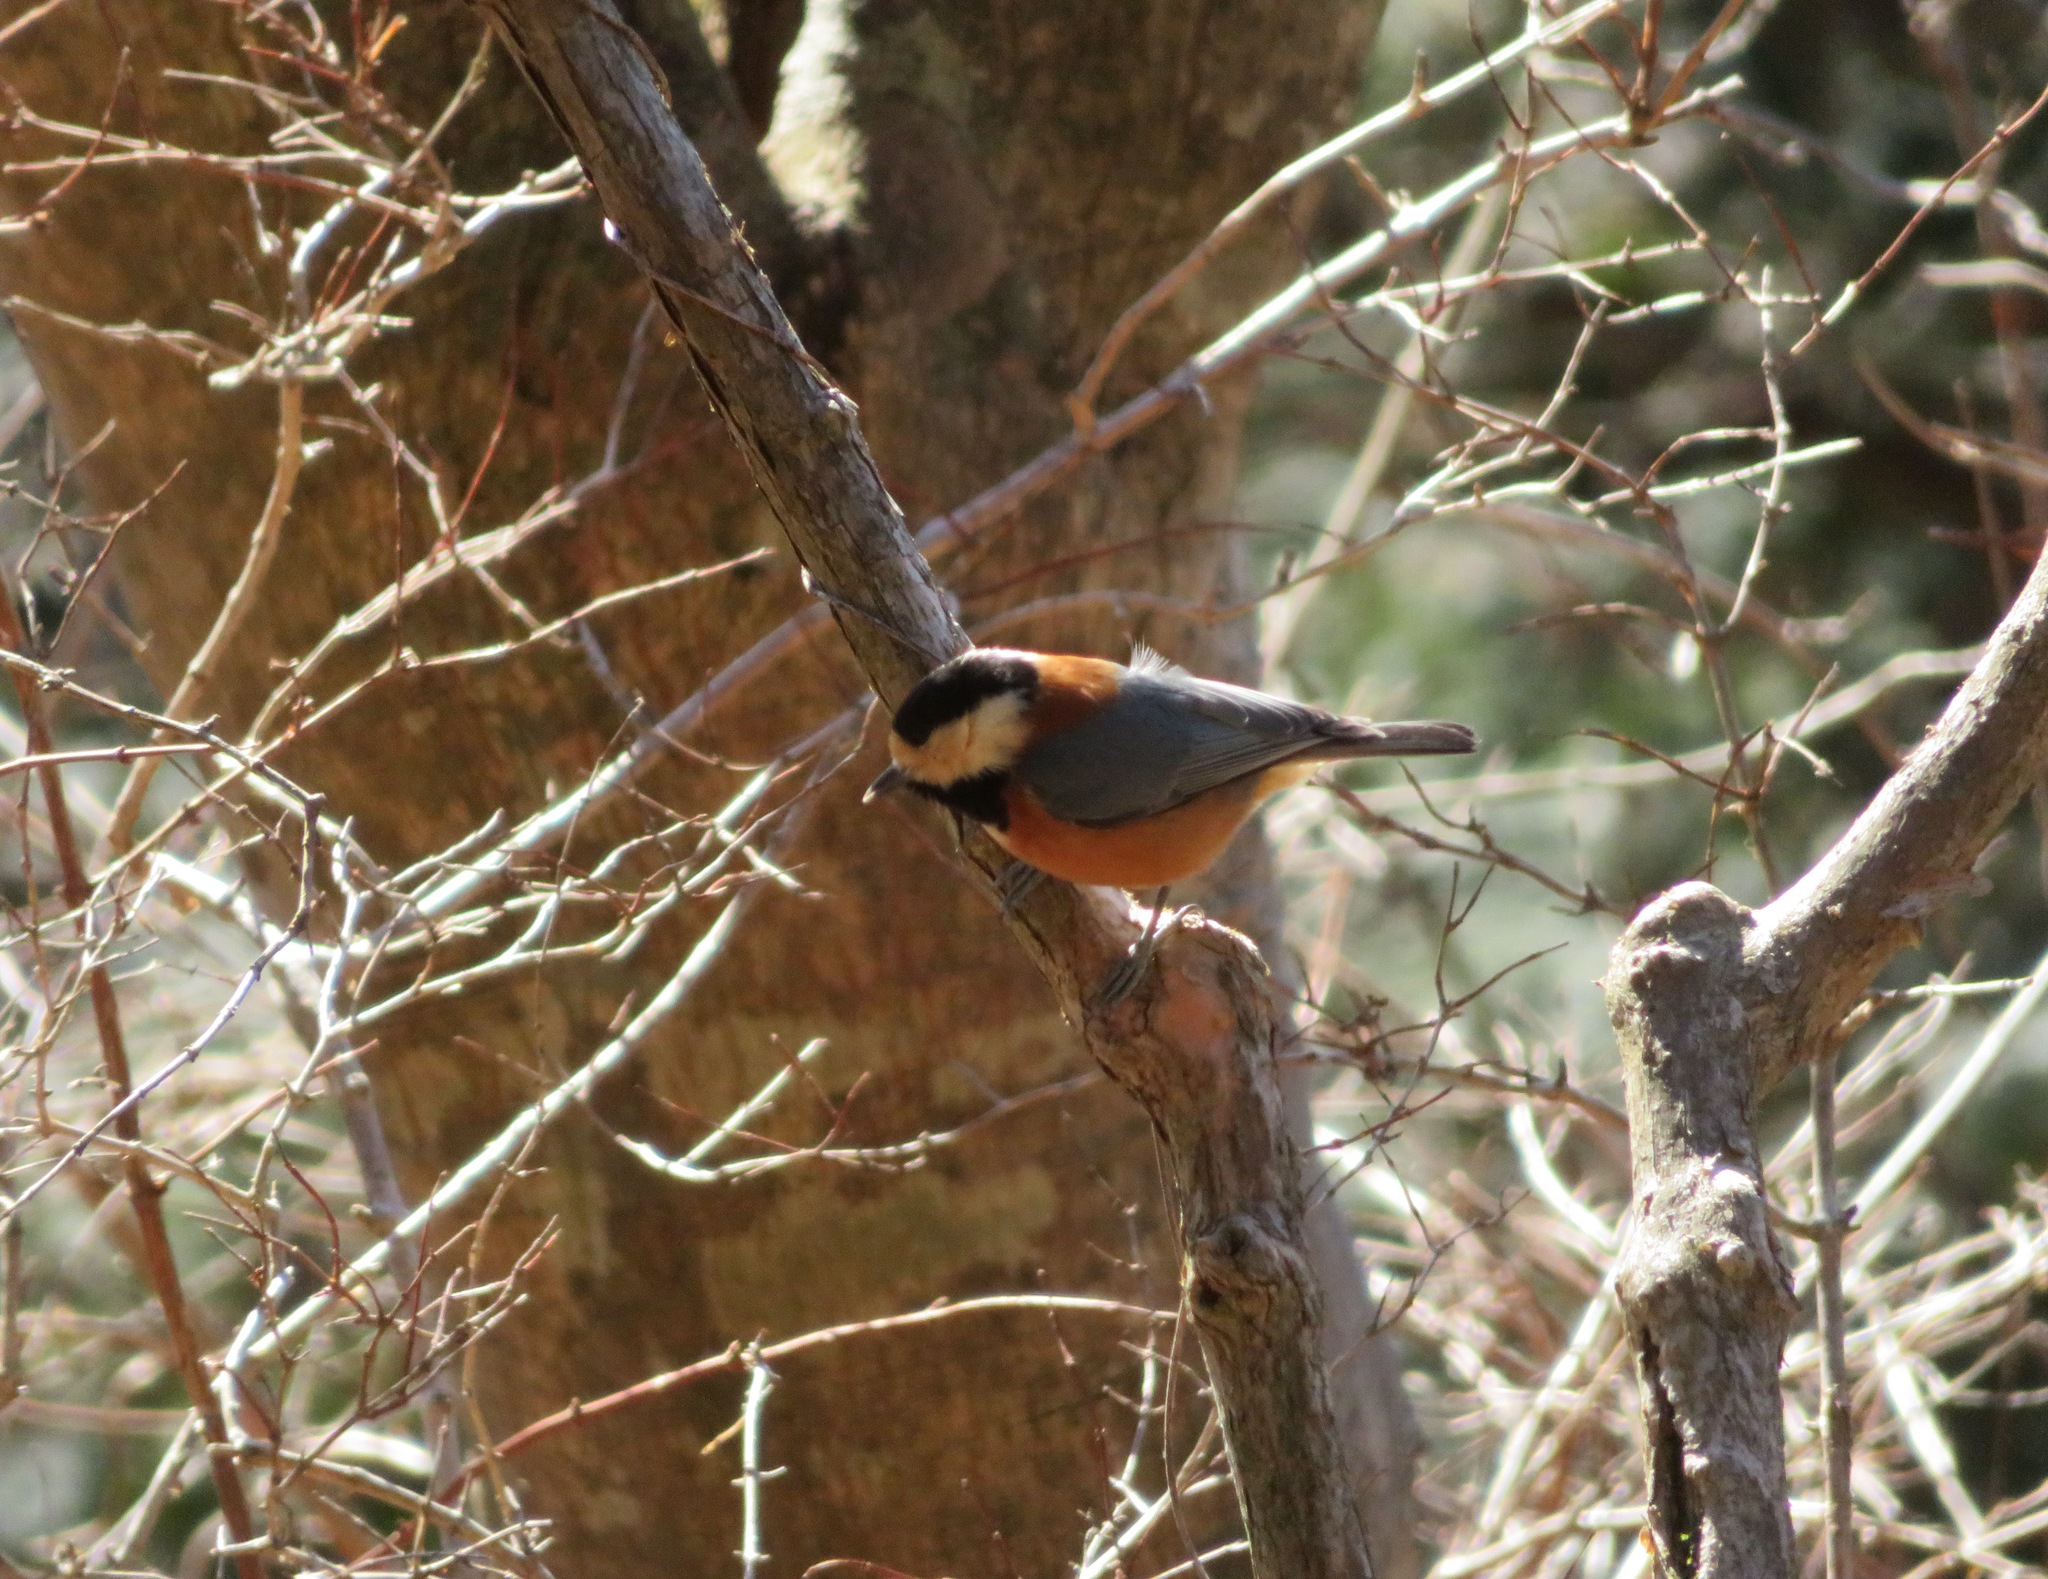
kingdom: Animalia
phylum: Chordata
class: Aves
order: Passeriformes
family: Paridae
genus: Poecile
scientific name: Poecile varius
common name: Varied tit
